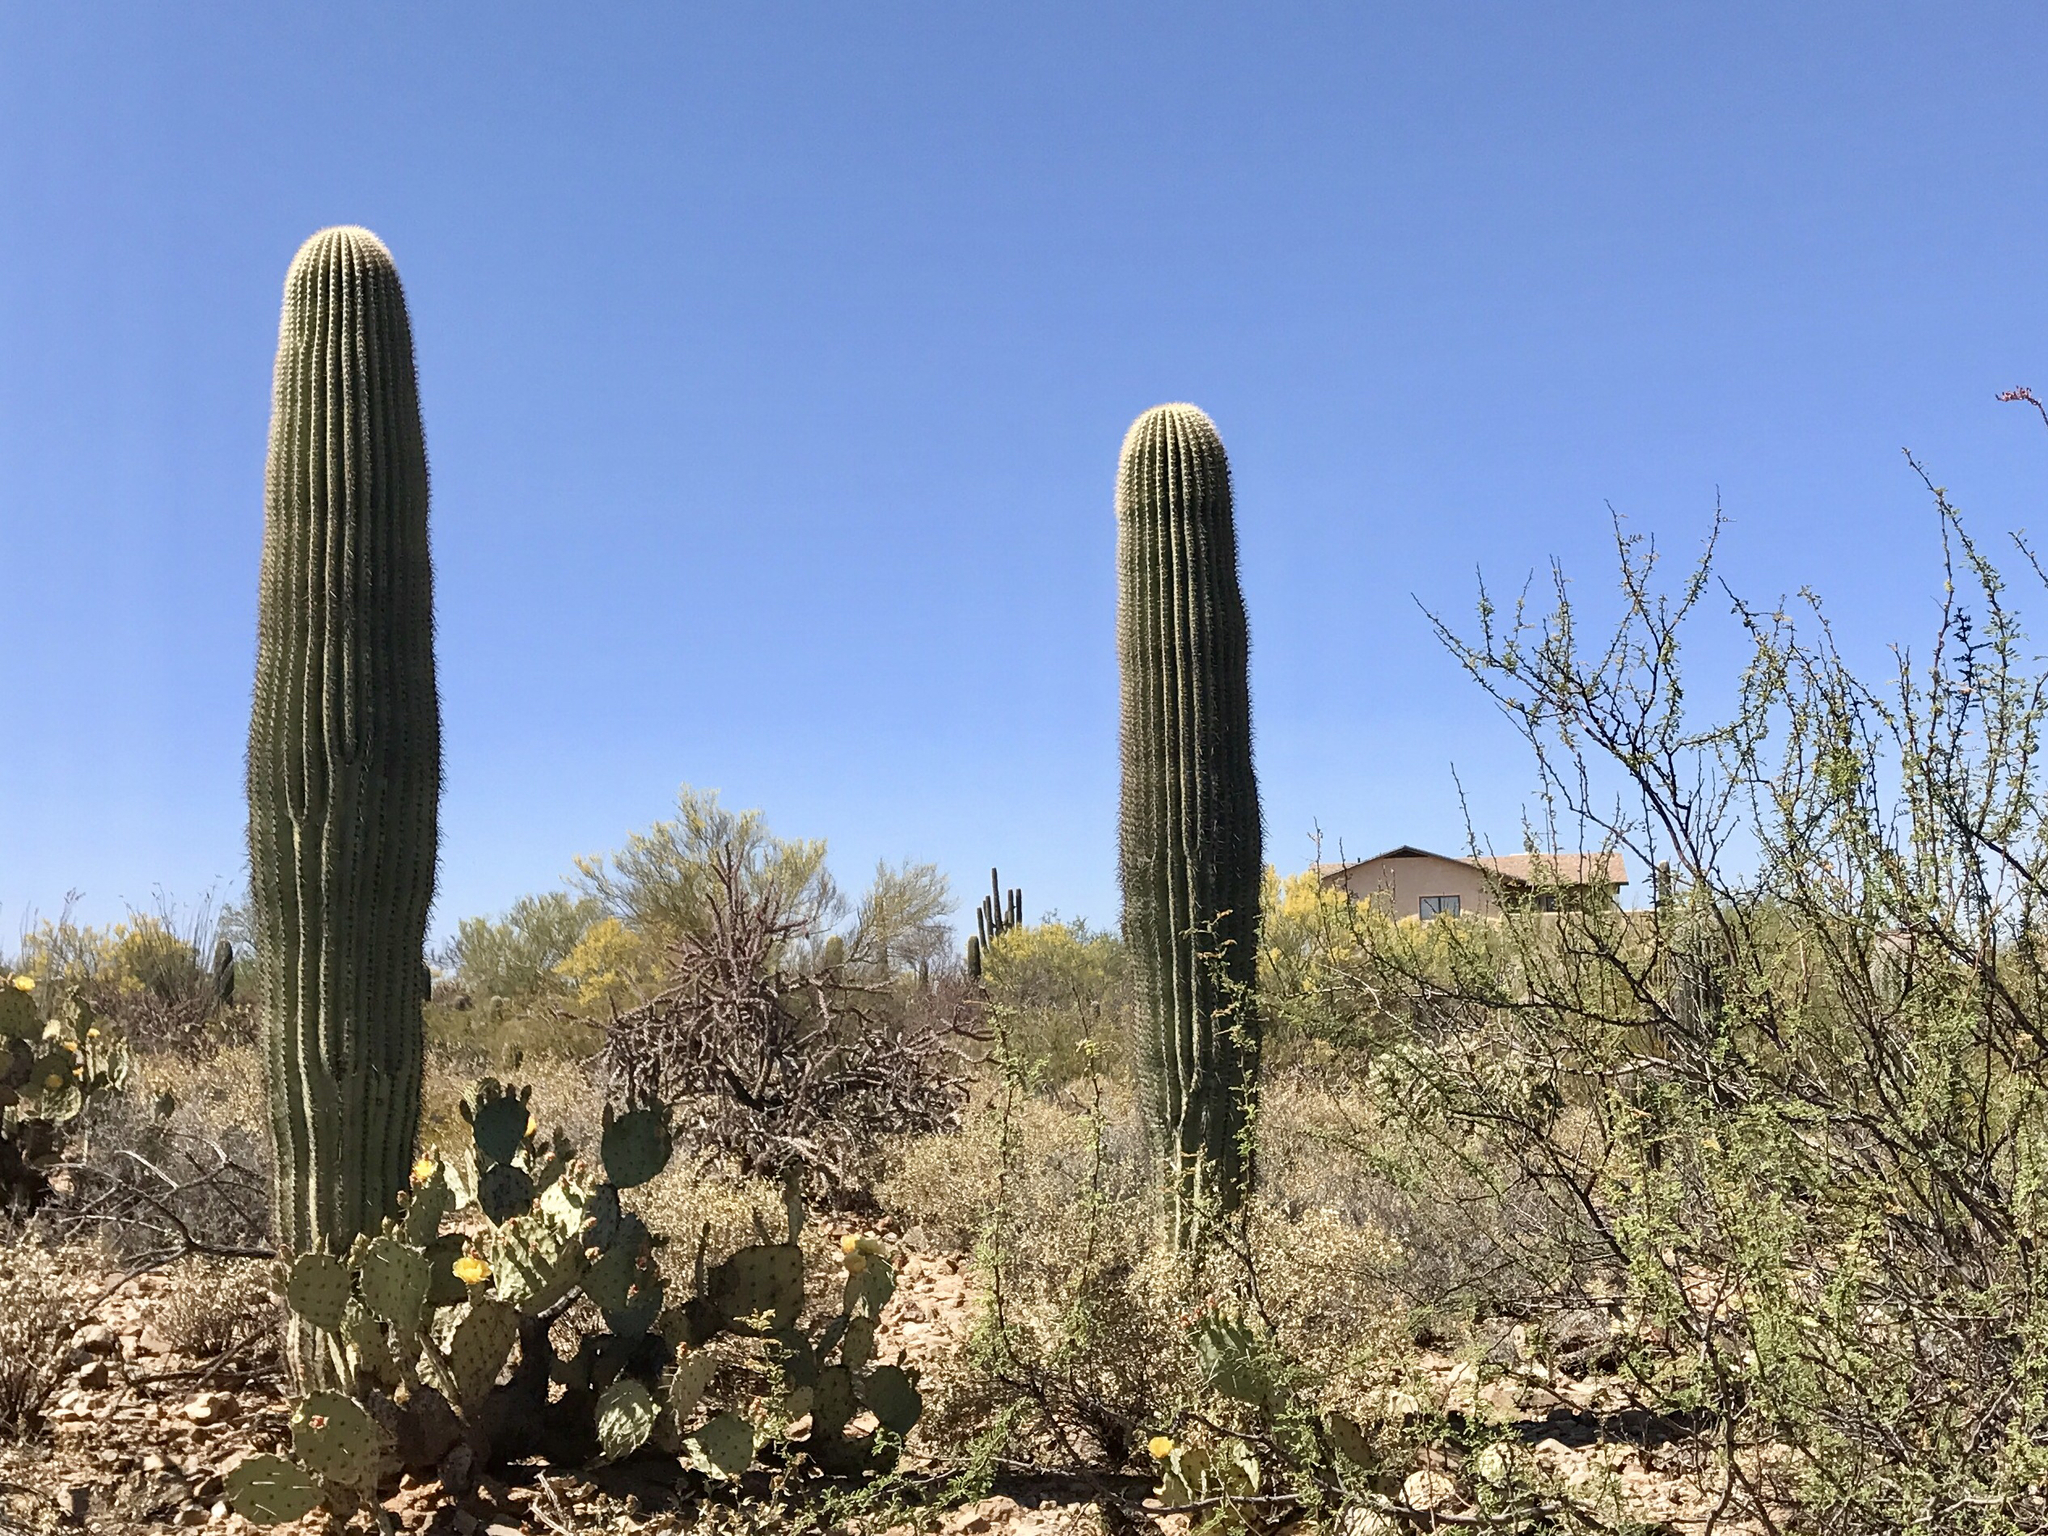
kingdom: Plantae
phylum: Tracheophyta
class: Magnoliopsida
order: Caryophyllales
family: Cactaceae
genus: Carnegiea
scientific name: Carnegiea gigantea
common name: Saguaro
